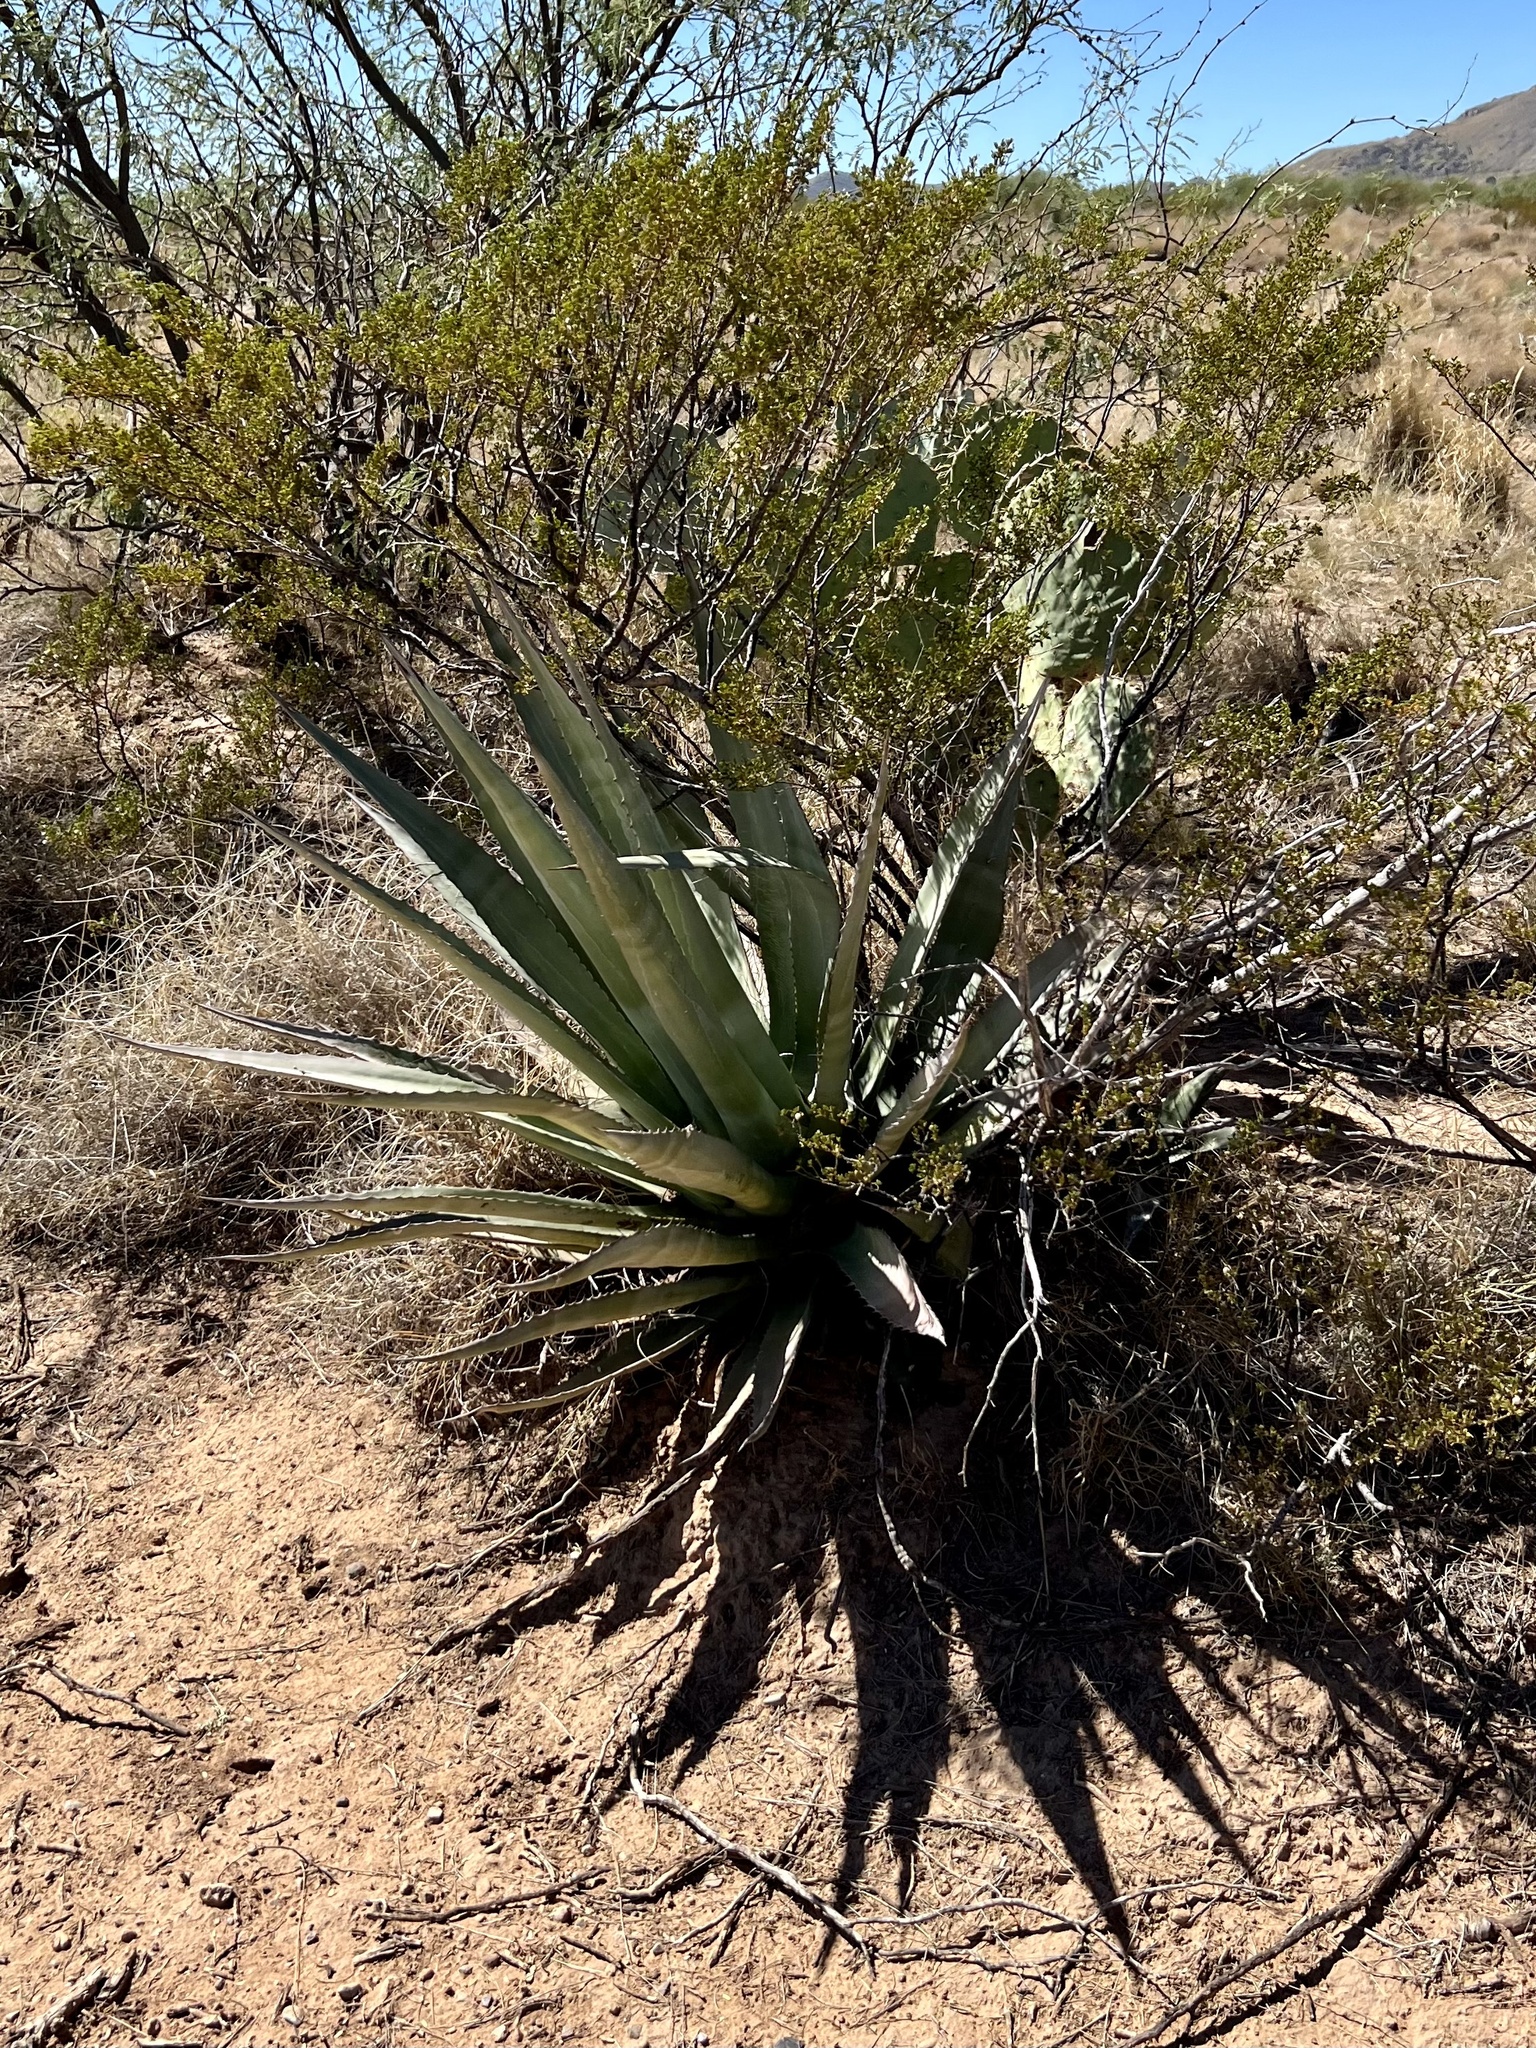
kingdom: Plantae
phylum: Tracheophyta
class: Liliopsida
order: Asparagales
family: Asparagaceae
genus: Agave
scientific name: Agave palmeri
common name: Palmer agave
